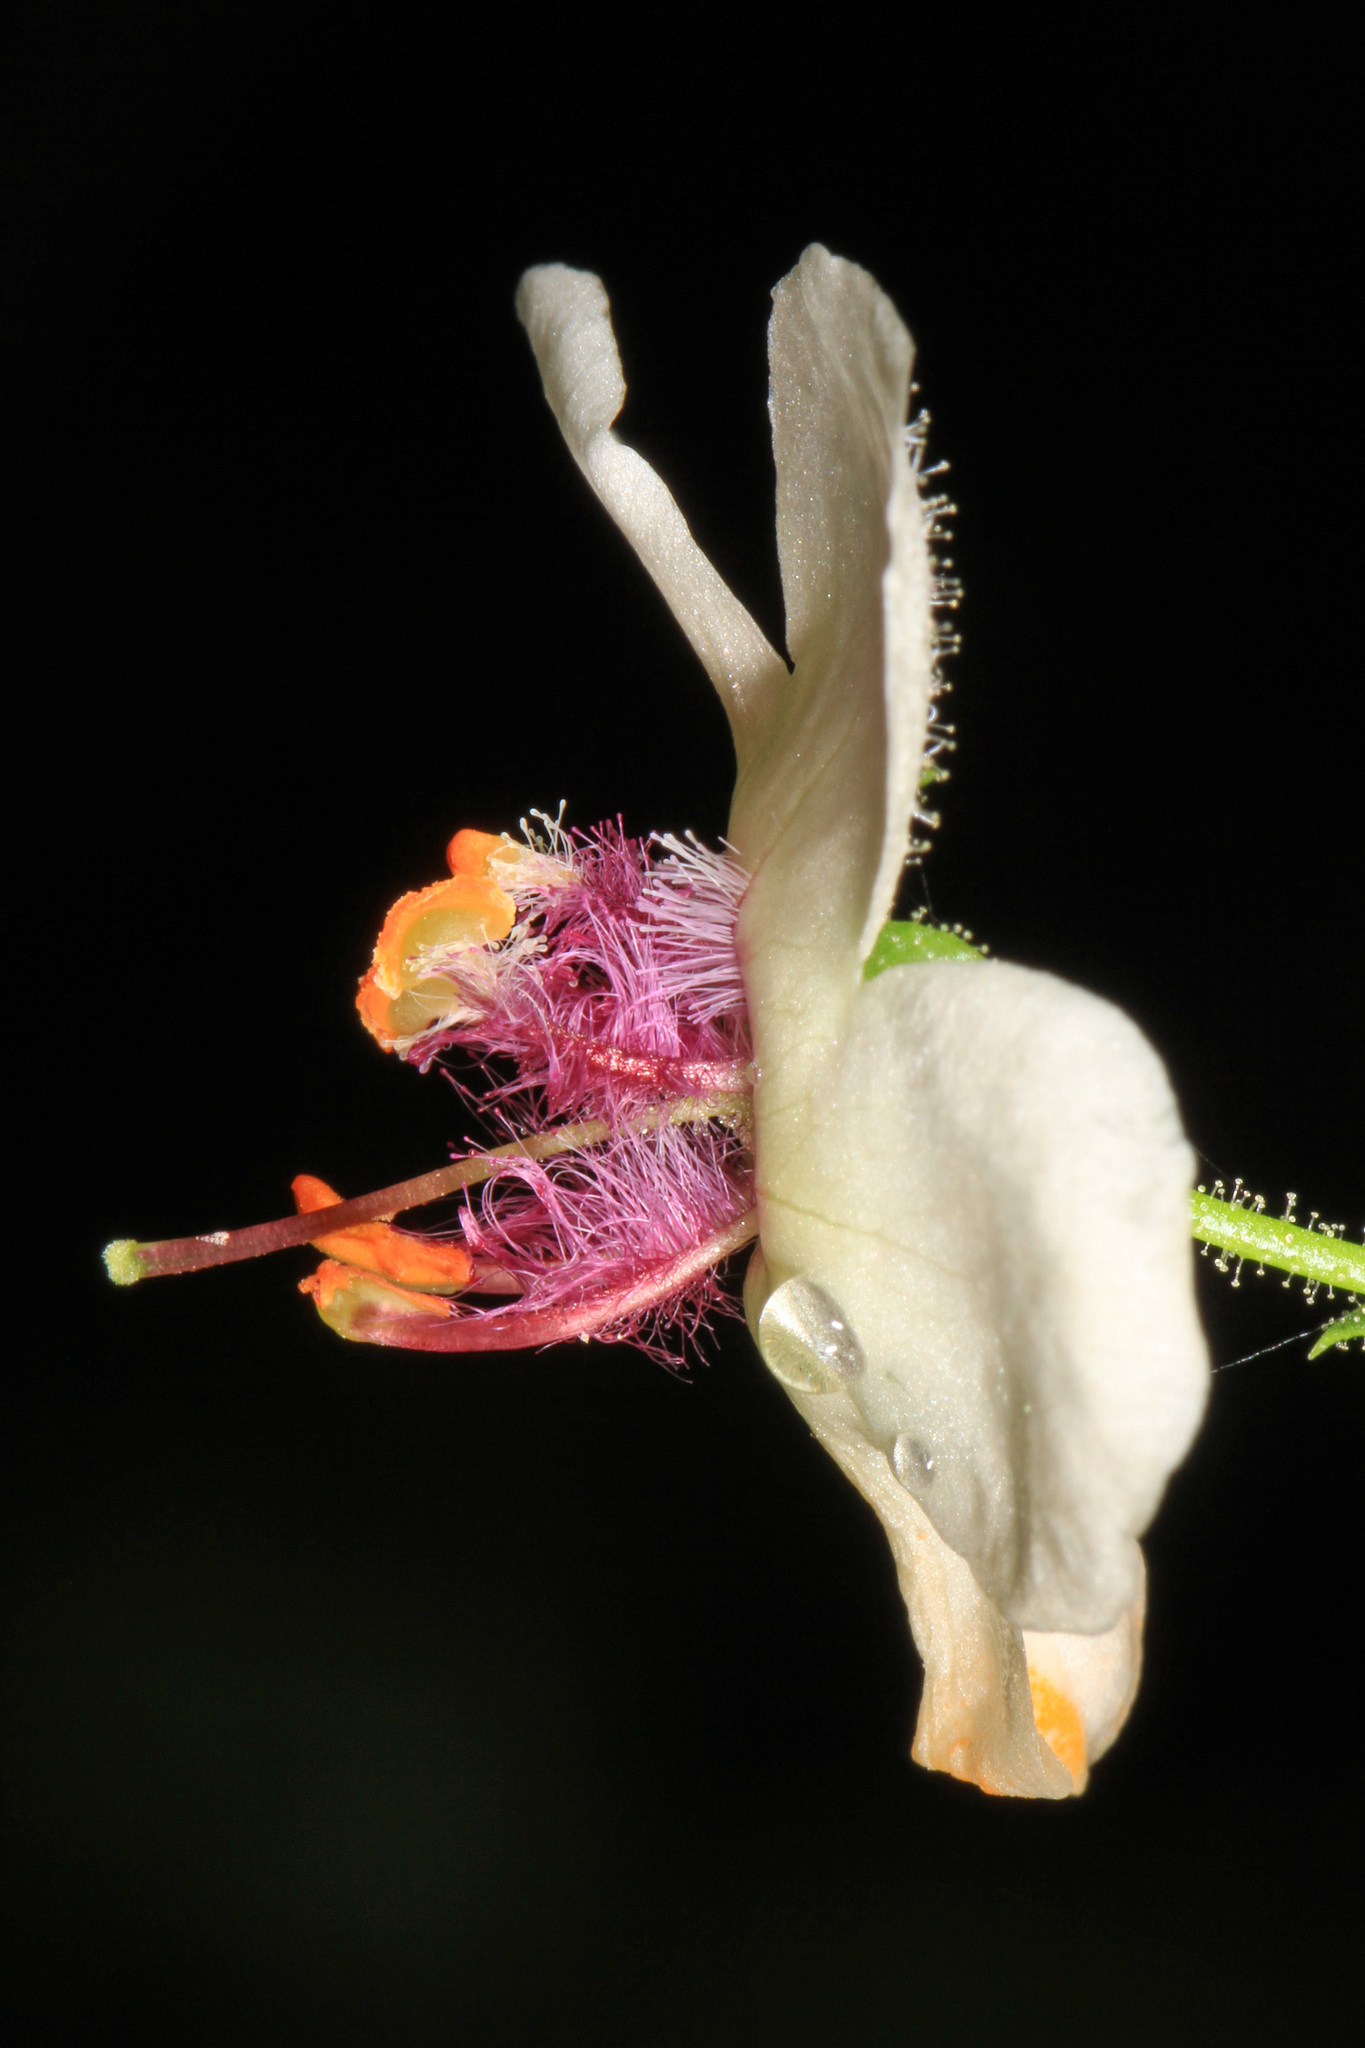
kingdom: Plantae
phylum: Tracheophyta
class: Magnoliopsida
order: Lamiales
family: Scrophulariaceae
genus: Verbascum
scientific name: Verbascum blattaria
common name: Moth mullein
